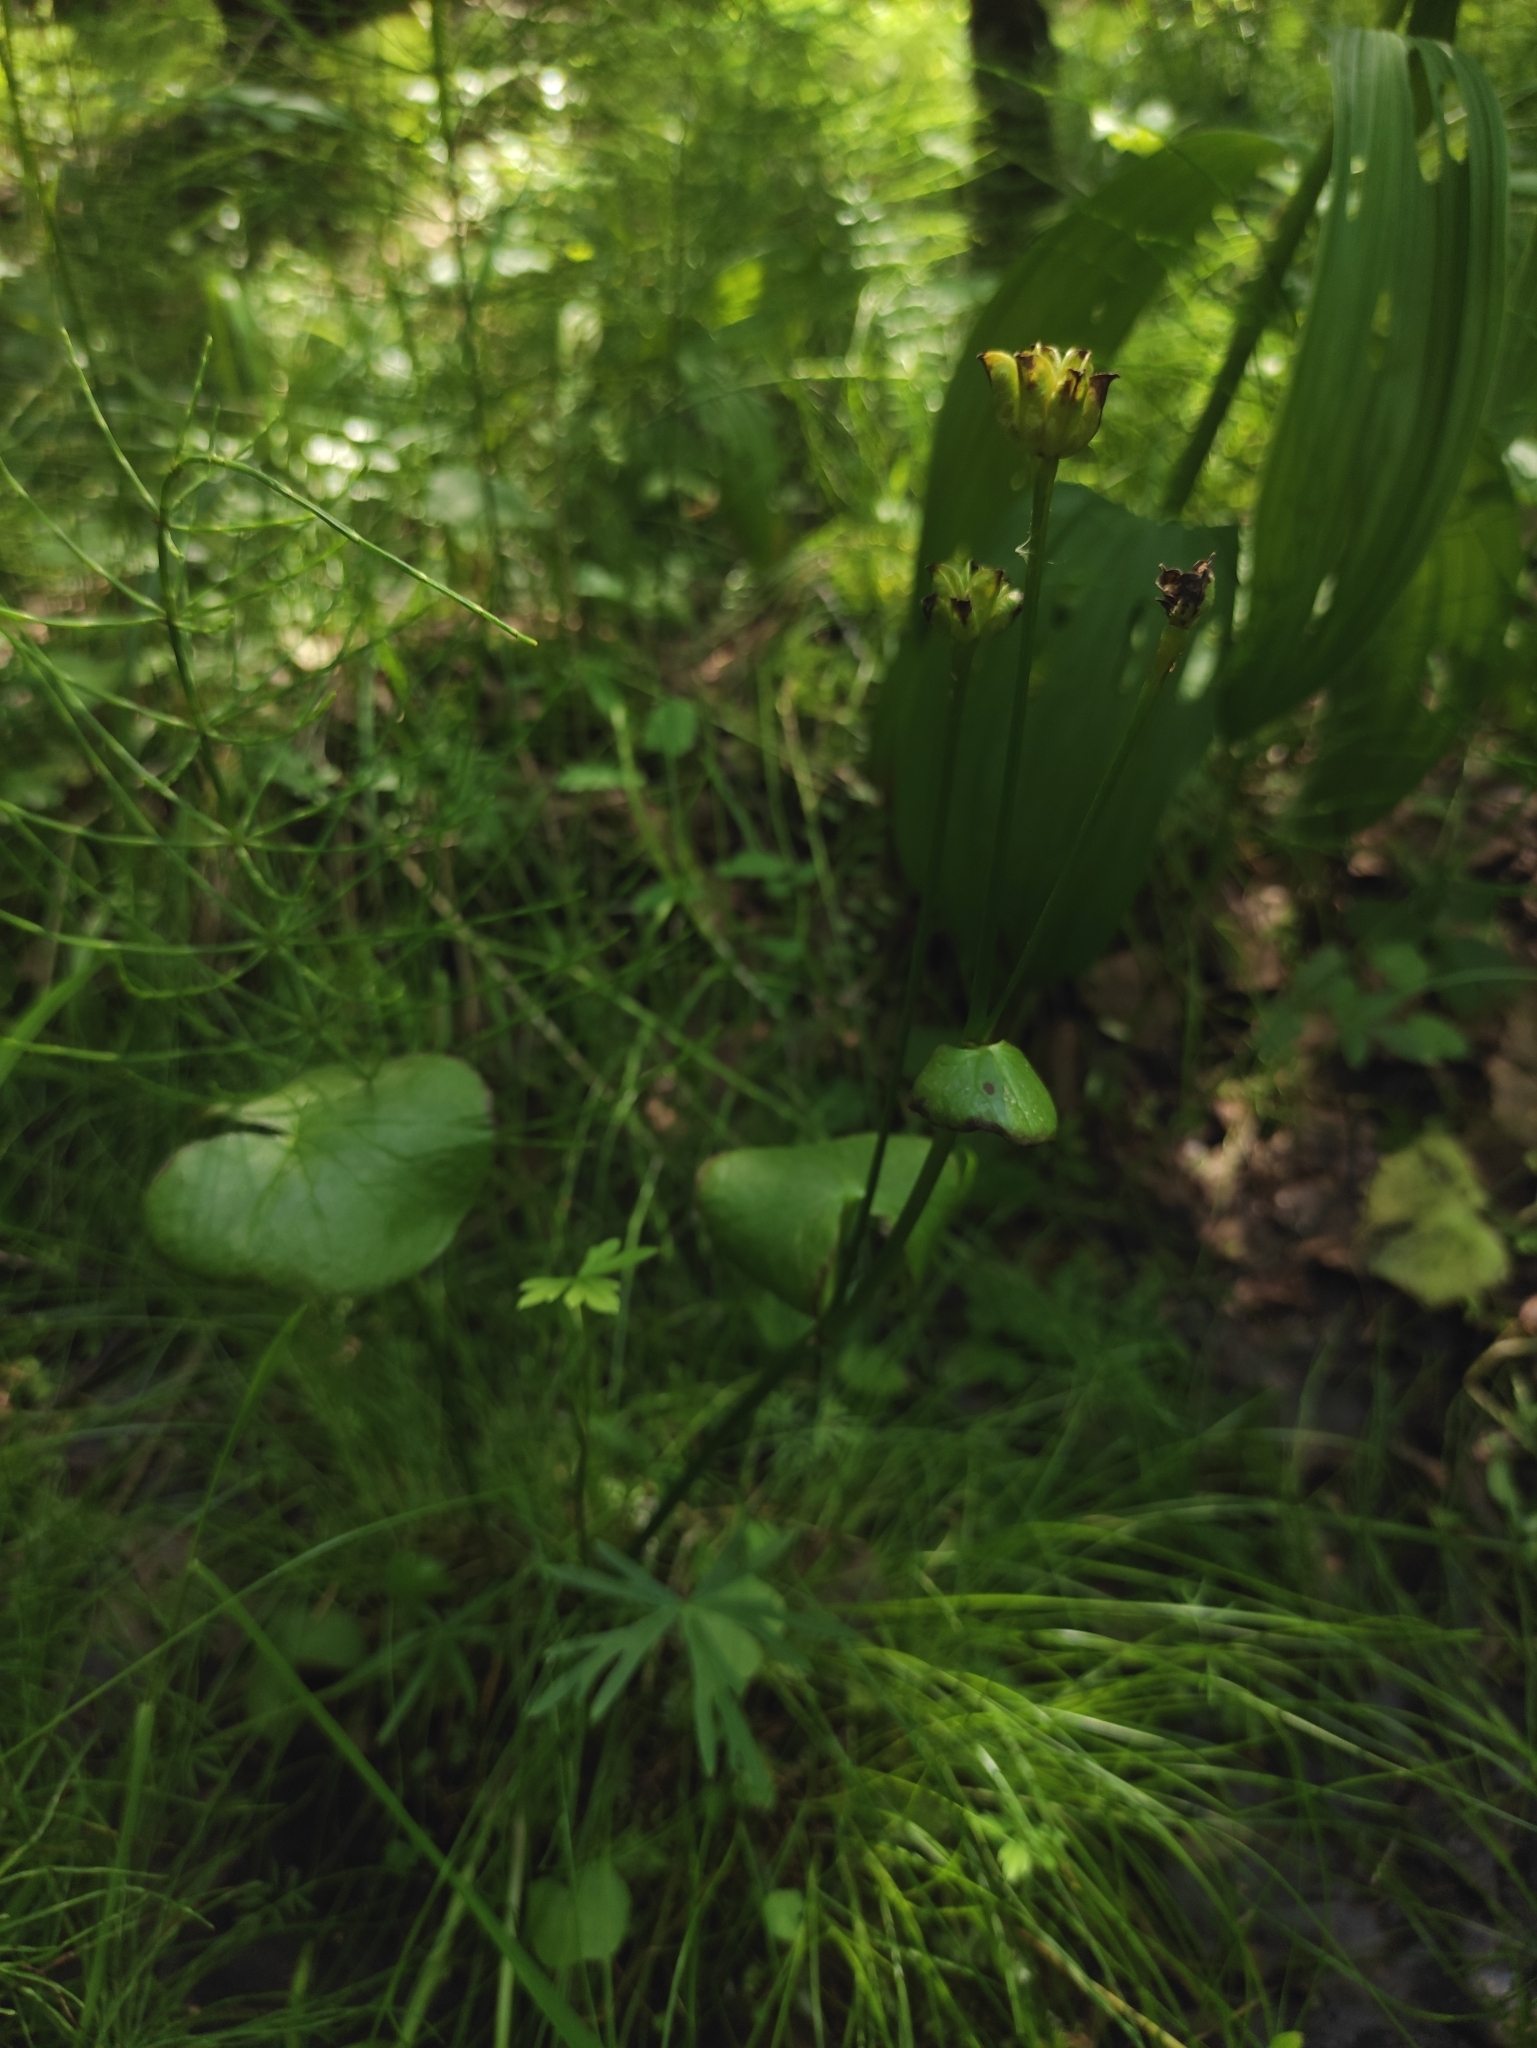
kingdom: Plantae
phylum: Tracheophyta
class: Magnoliopsida
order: Ranunculales
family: Ranunculaceae
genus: Caltha
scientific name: Caltha palustris
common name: Marsh marigold
